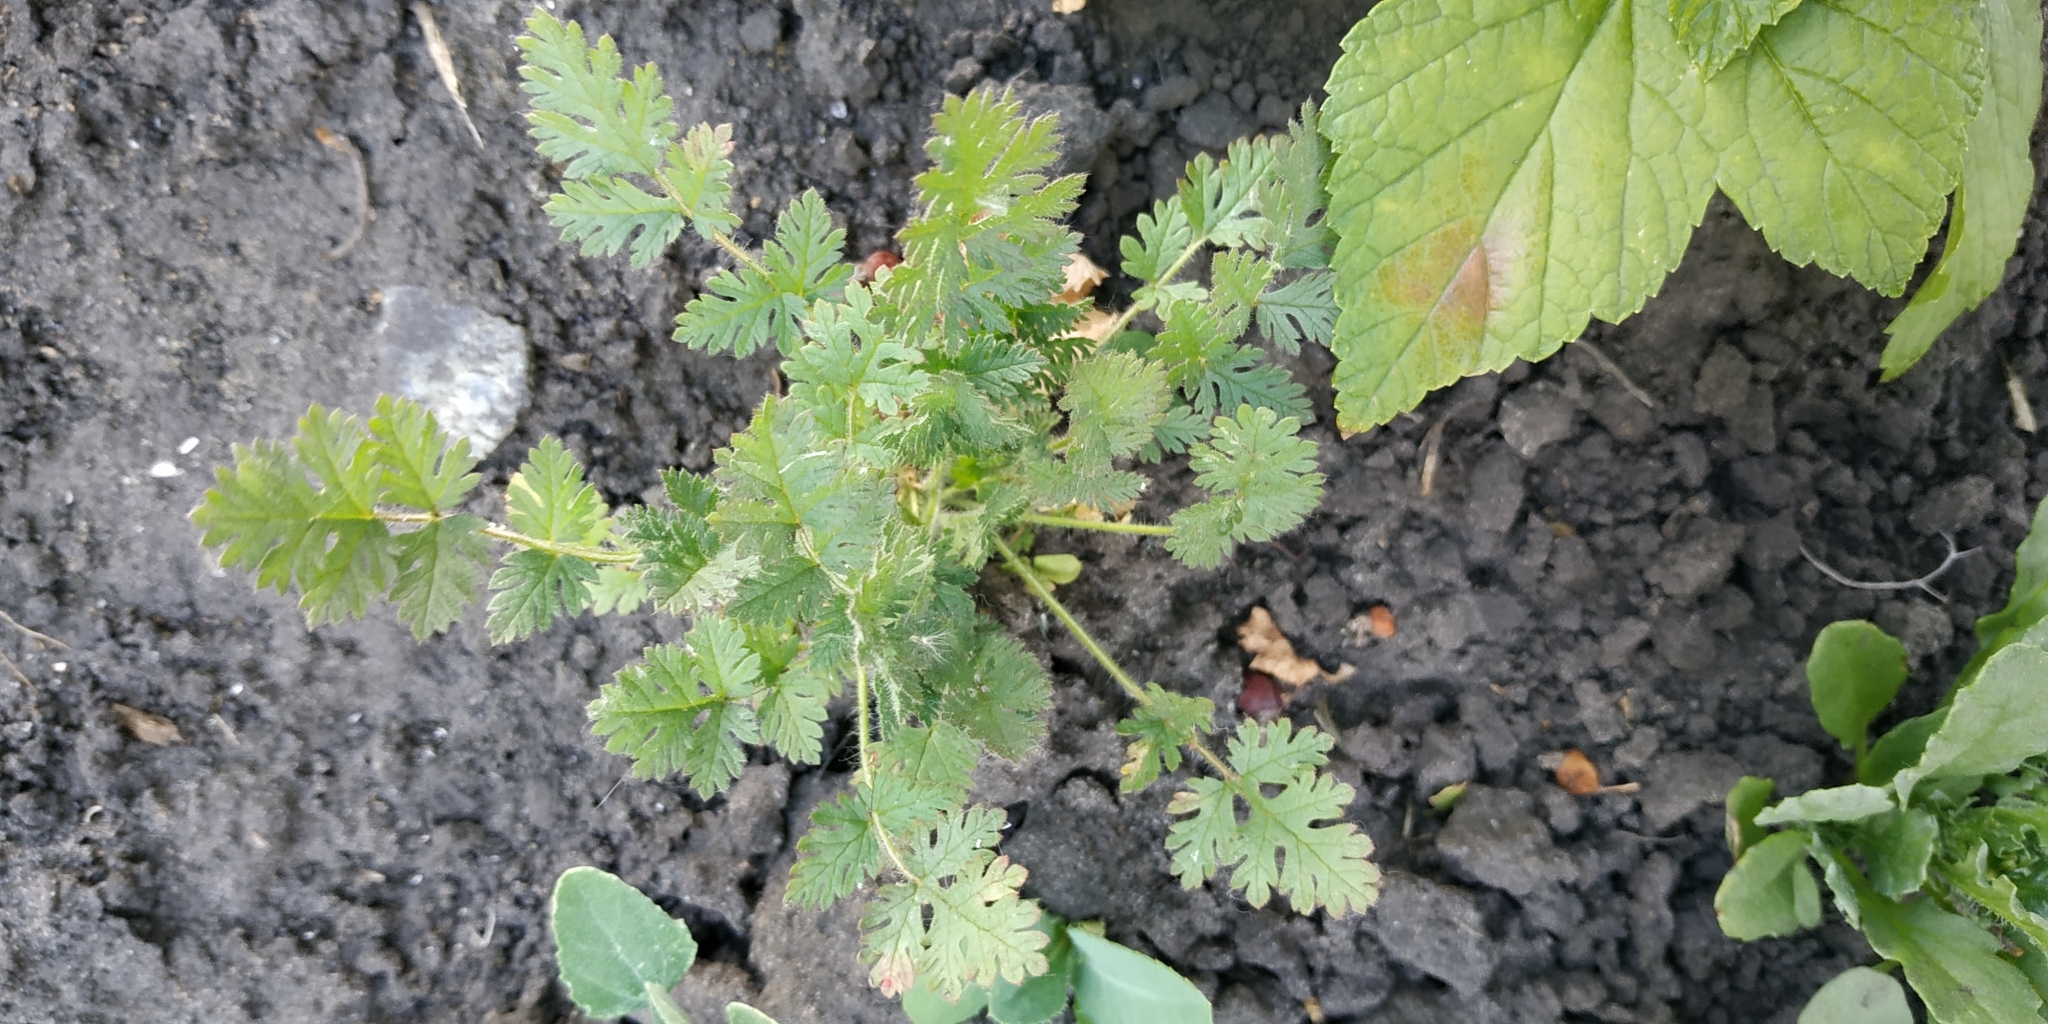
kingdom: Plantae
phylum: Tracheophyta
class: Magnoliopsida
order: Geraniales
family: Geraniaceae
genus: Erodium
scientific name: Erodium cicutarium
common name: Common stork's-bill
